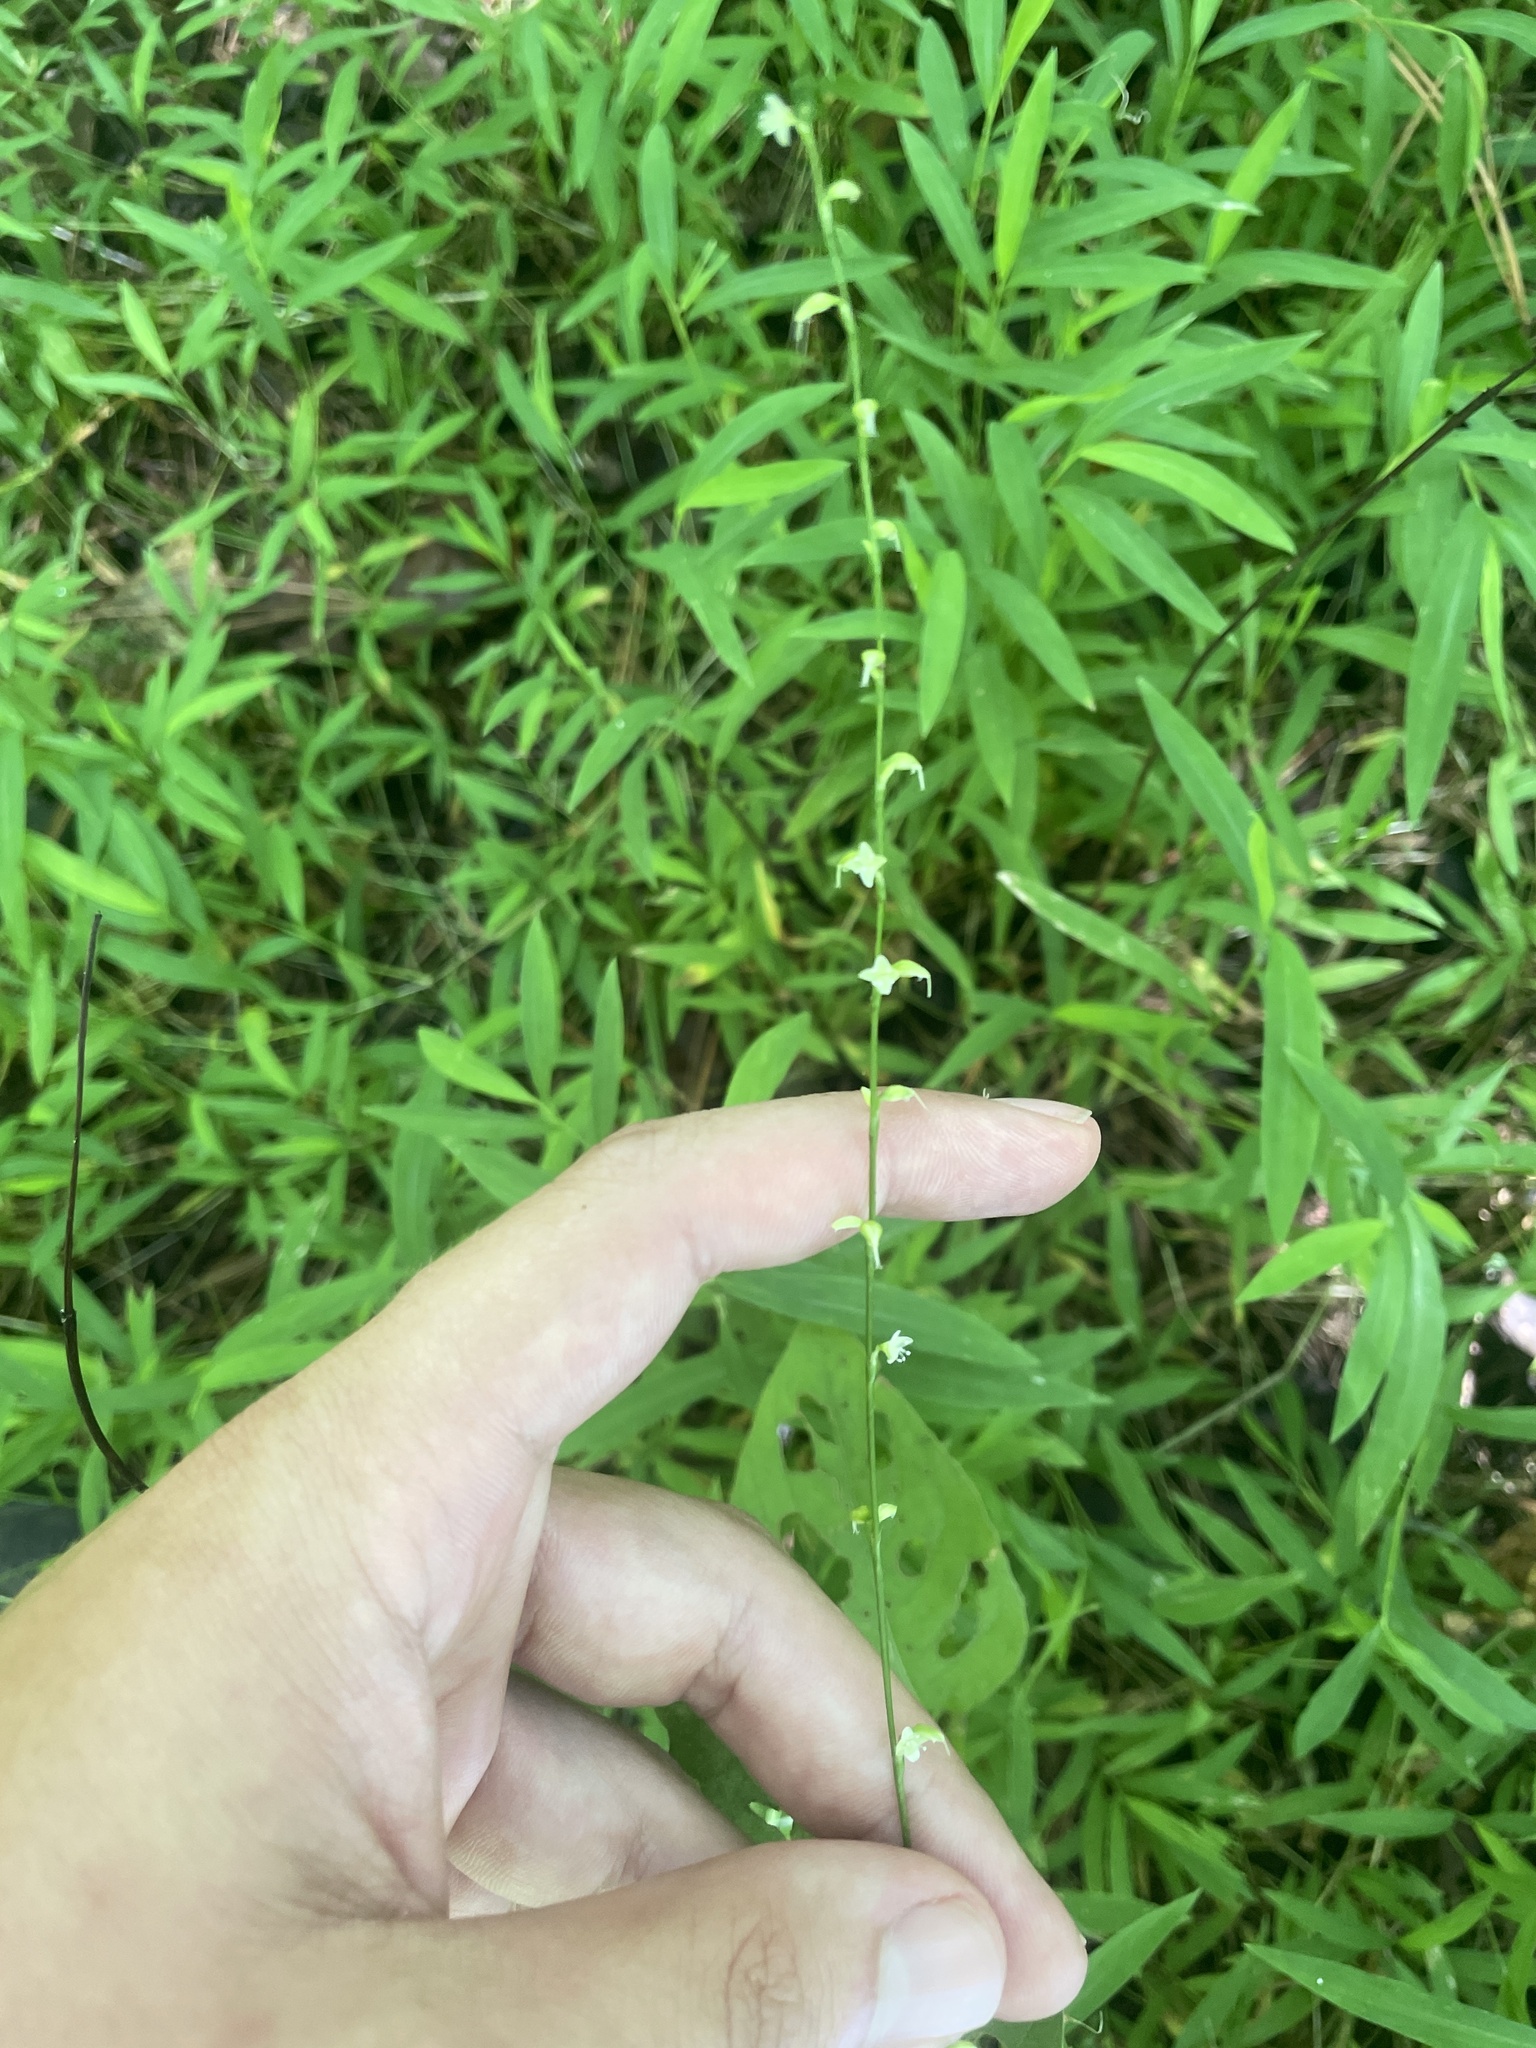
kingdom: Plantae
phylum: Tracheophyta
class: Magnoliopsida
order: Caryophyllales
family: Polygonaceae
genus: Persicaria
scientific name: Persicaria virginiana
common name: Jumpseed
